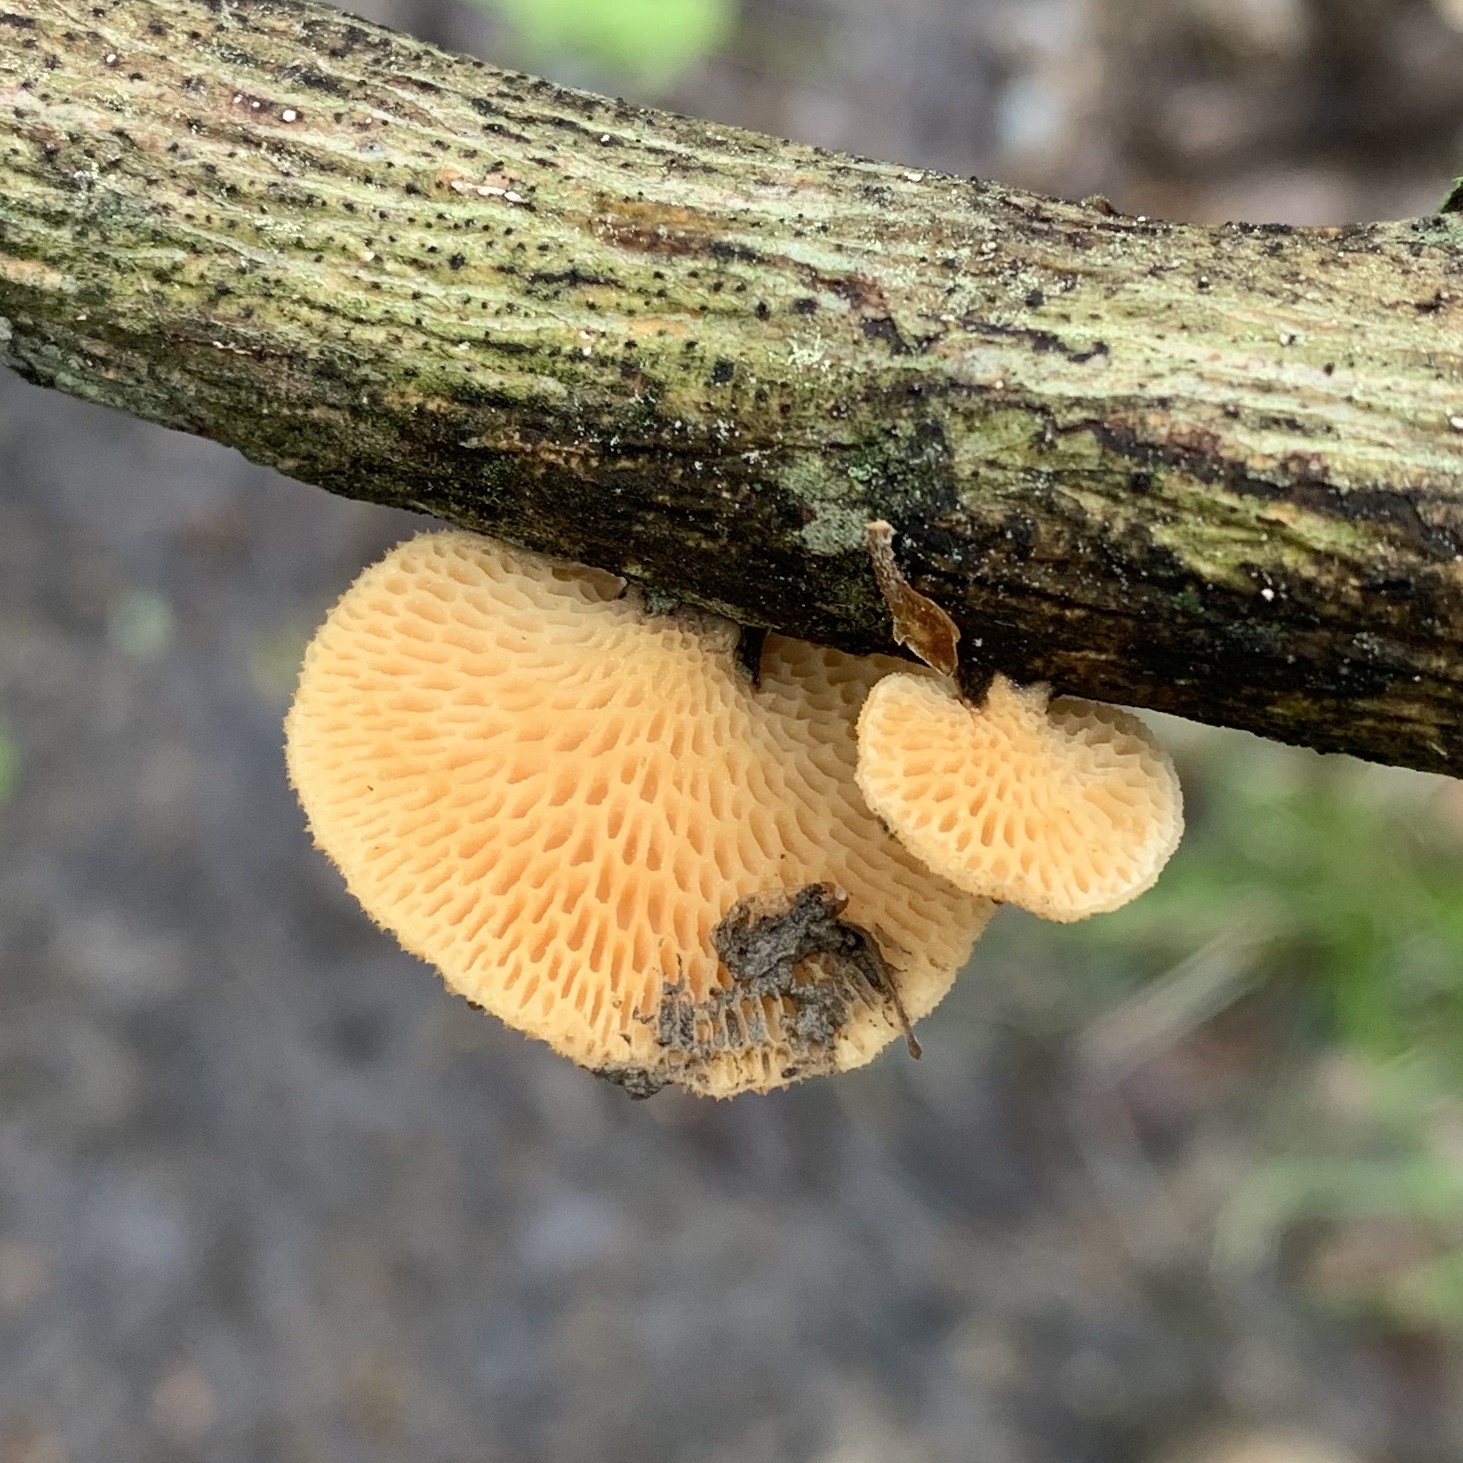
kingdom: Fungi
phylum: Basidiomycota
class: Agaricomycetes
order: Polyporales
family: Polyporaceae
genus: Neofavolus
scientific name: Neofavolus alveolaris
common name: Hexagonal-pored polypore
